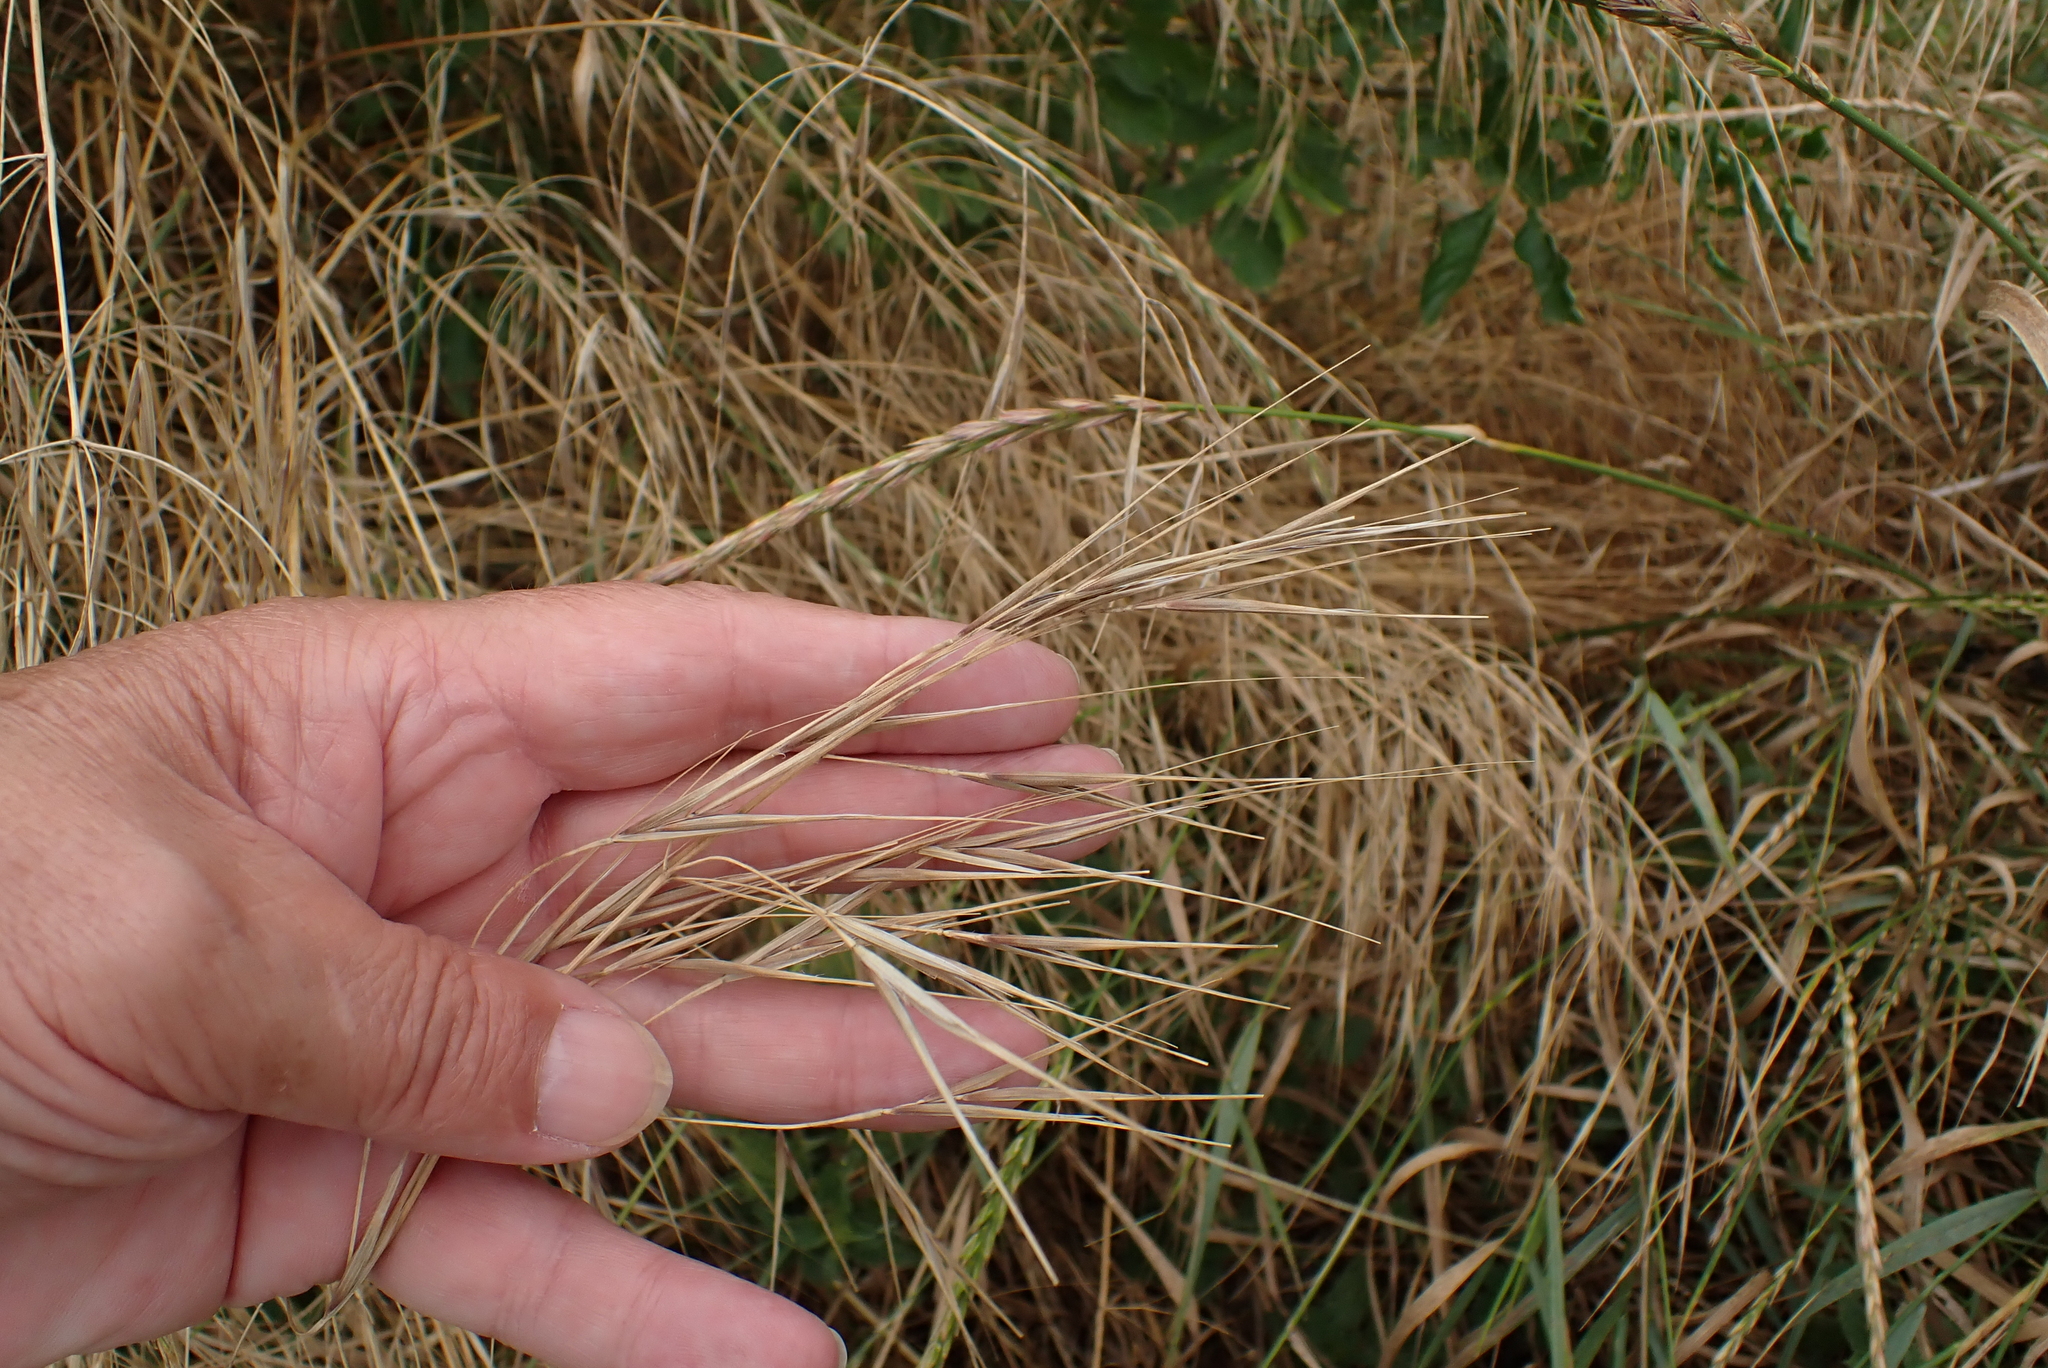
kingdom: Plantae
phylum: Tracheophyta
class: Liliopsida
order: Poales
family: Poaceae
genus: Bromus
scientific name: Bromus diandrus
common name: Ripgut brome
